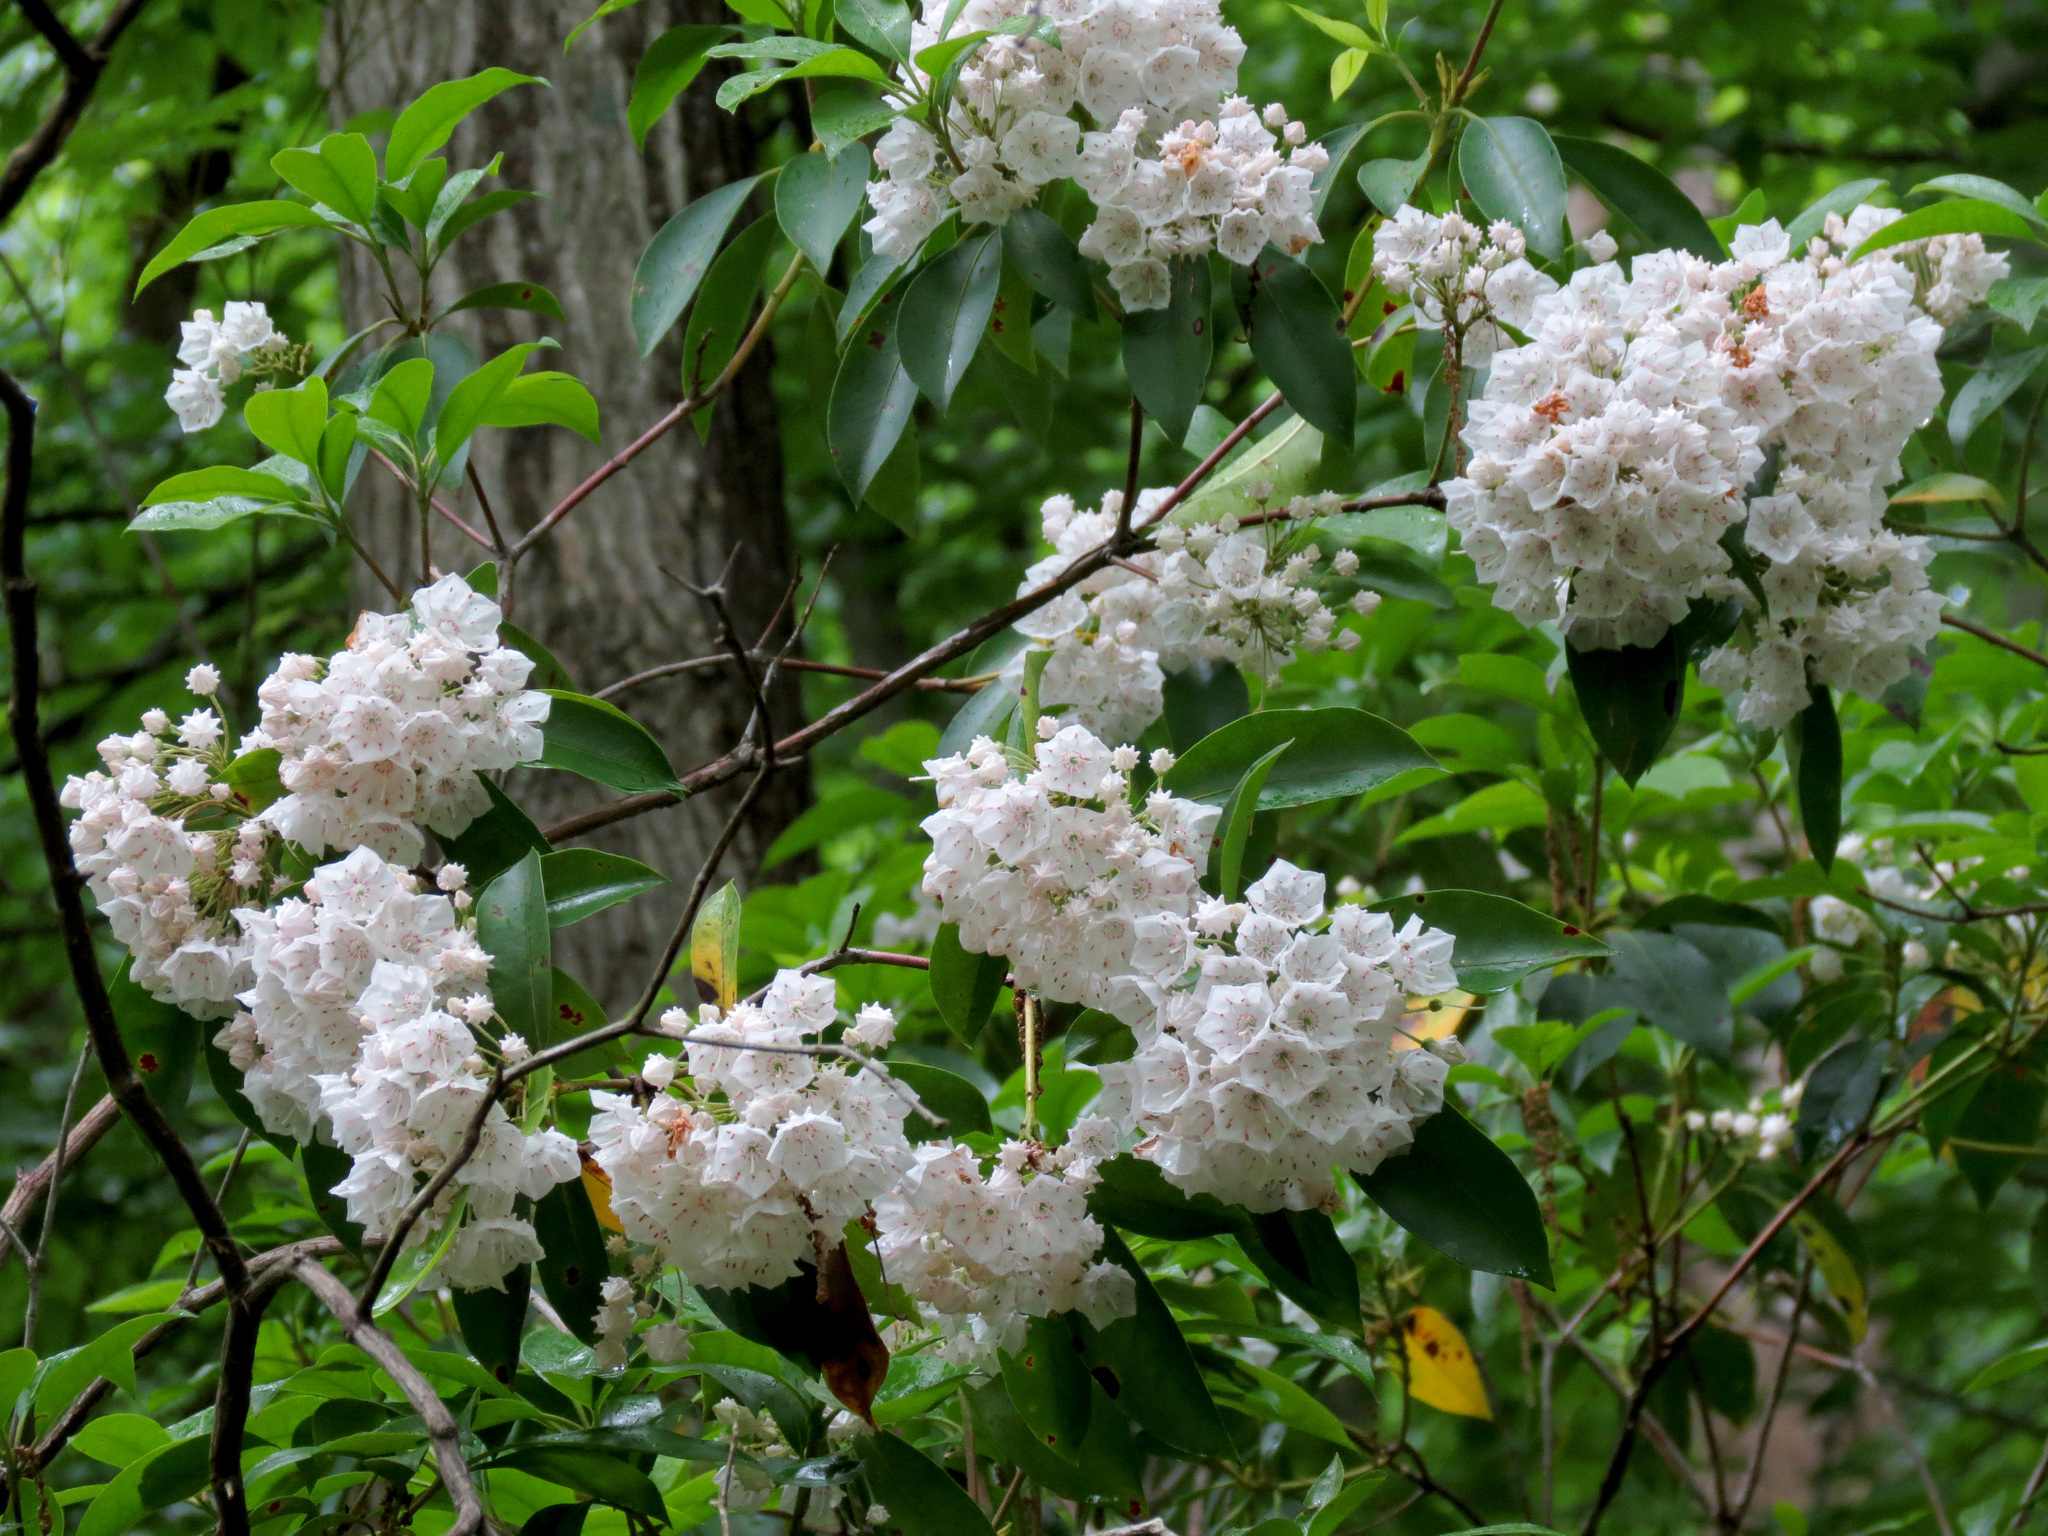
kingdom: Plantae
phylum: Tracheophyta
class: Magnoliopsida
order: Ericales
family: Ericaceae
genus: Kalmia
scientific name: Kalmia latifolia
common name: Mountain-laurel
